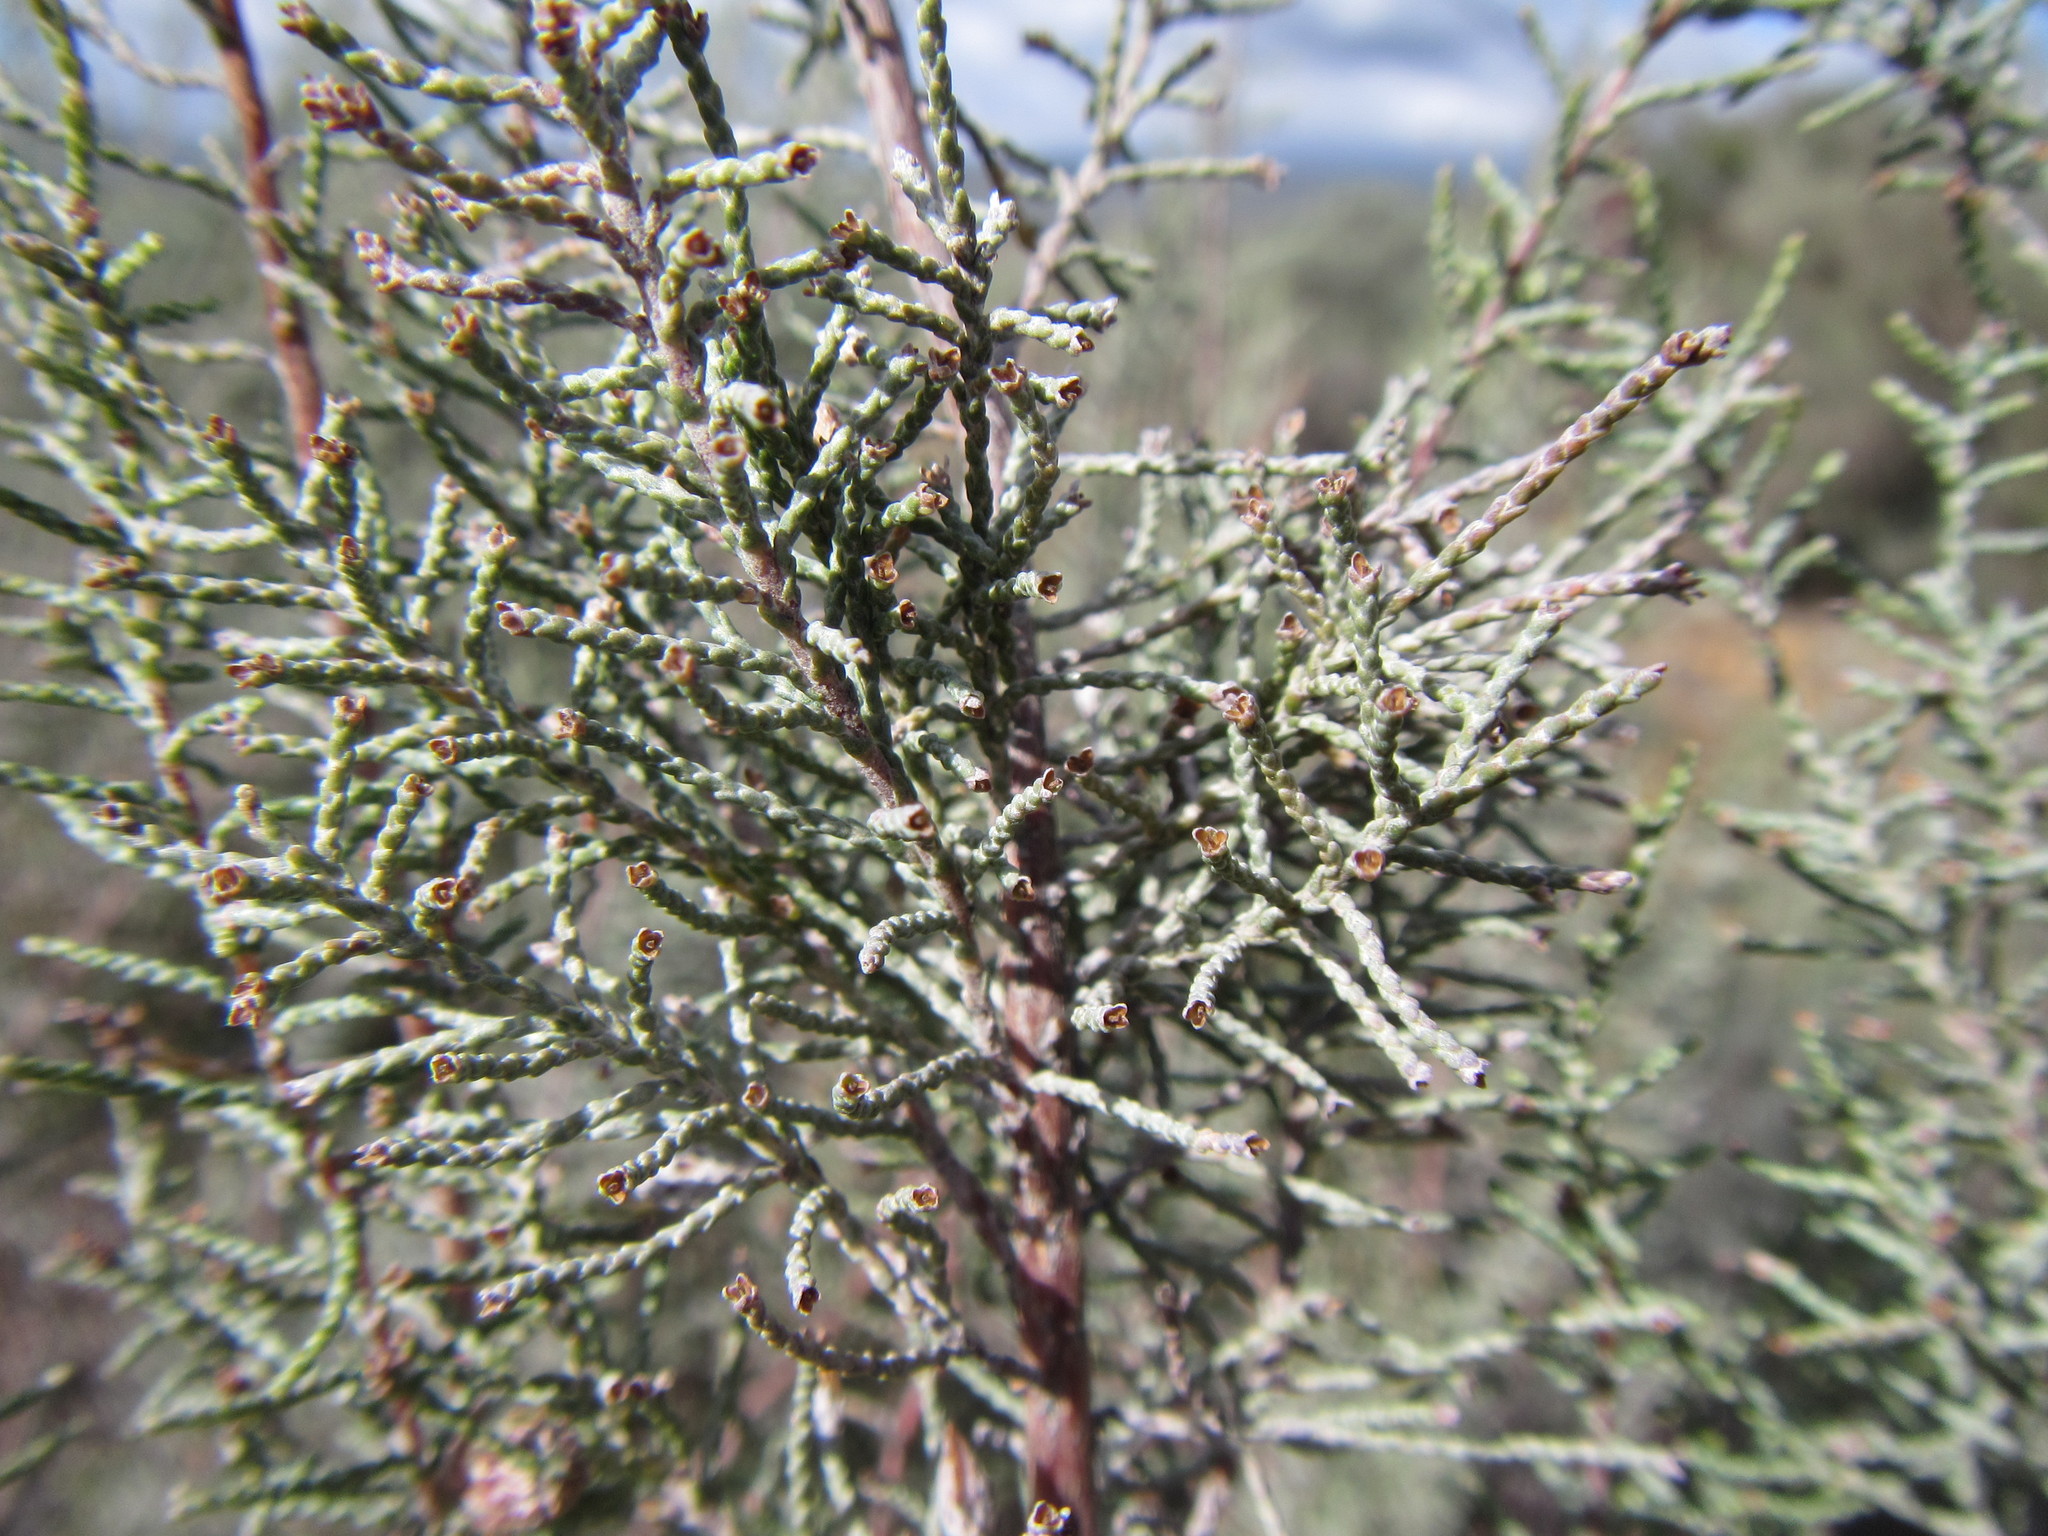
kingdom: Plantae
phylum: Tracheophyta
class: Magnoliopsida
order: Asterales
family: Asteraceae
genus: Dicerothamnus
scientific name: Dicerothamnus rhinocerotis
